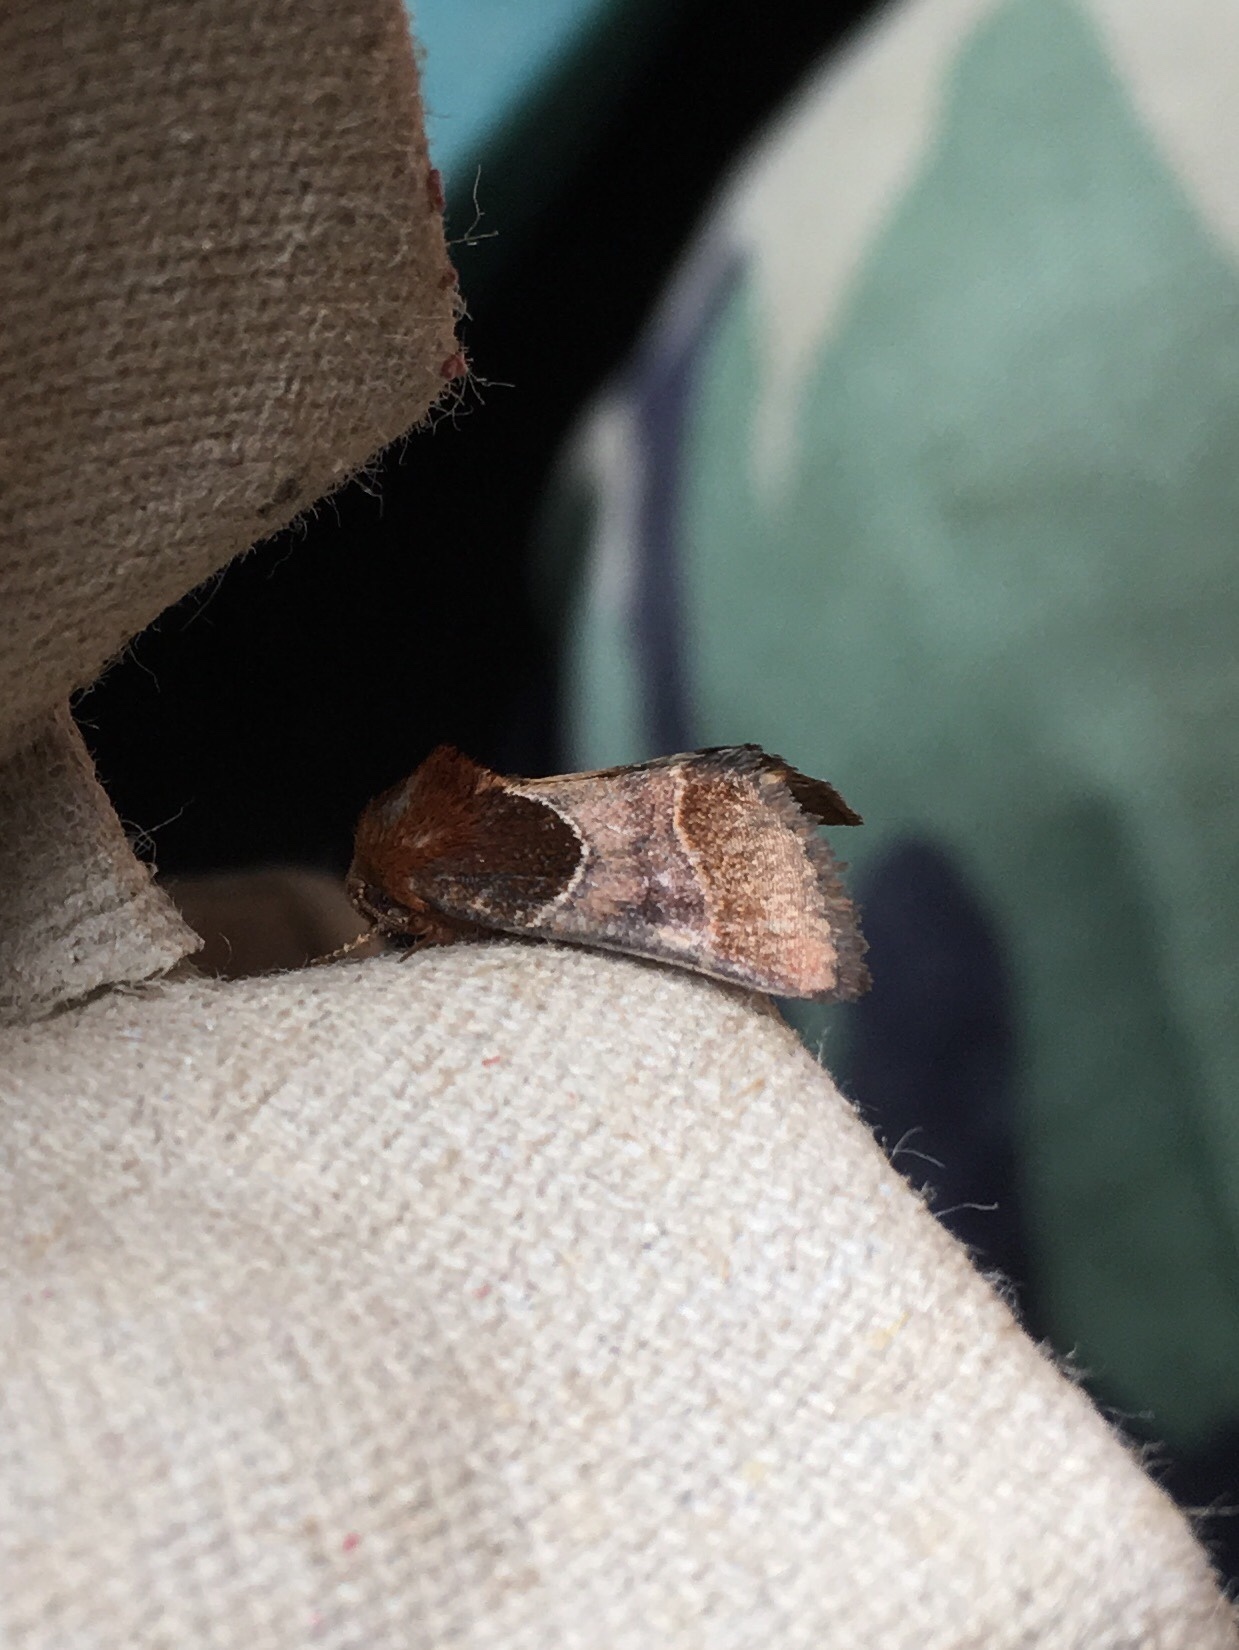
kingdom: Animalia
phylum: Arthropoda
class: Insecta
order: Lepidoptera
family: Noctuidae
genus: Schinia
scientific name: Schinia arcigera
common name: Arcigera flower moth
